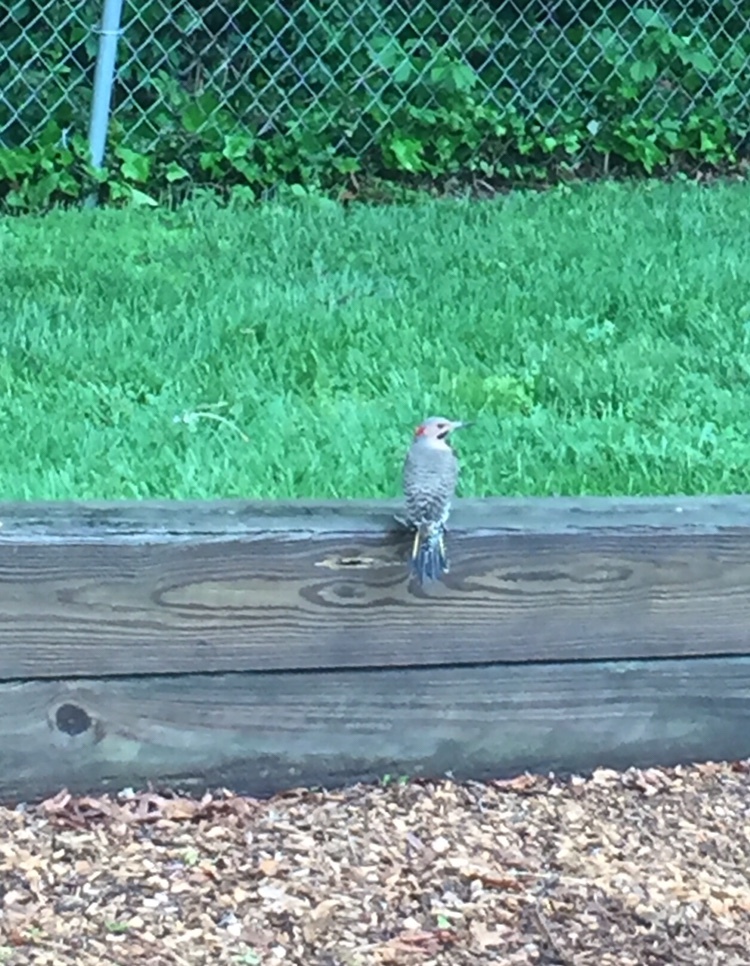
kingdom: Animalia
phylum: Chordata
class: Aves
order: Piciformes
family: Picidae
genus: Colaptes
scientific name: Colaptes auratus
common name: Northern flicker
